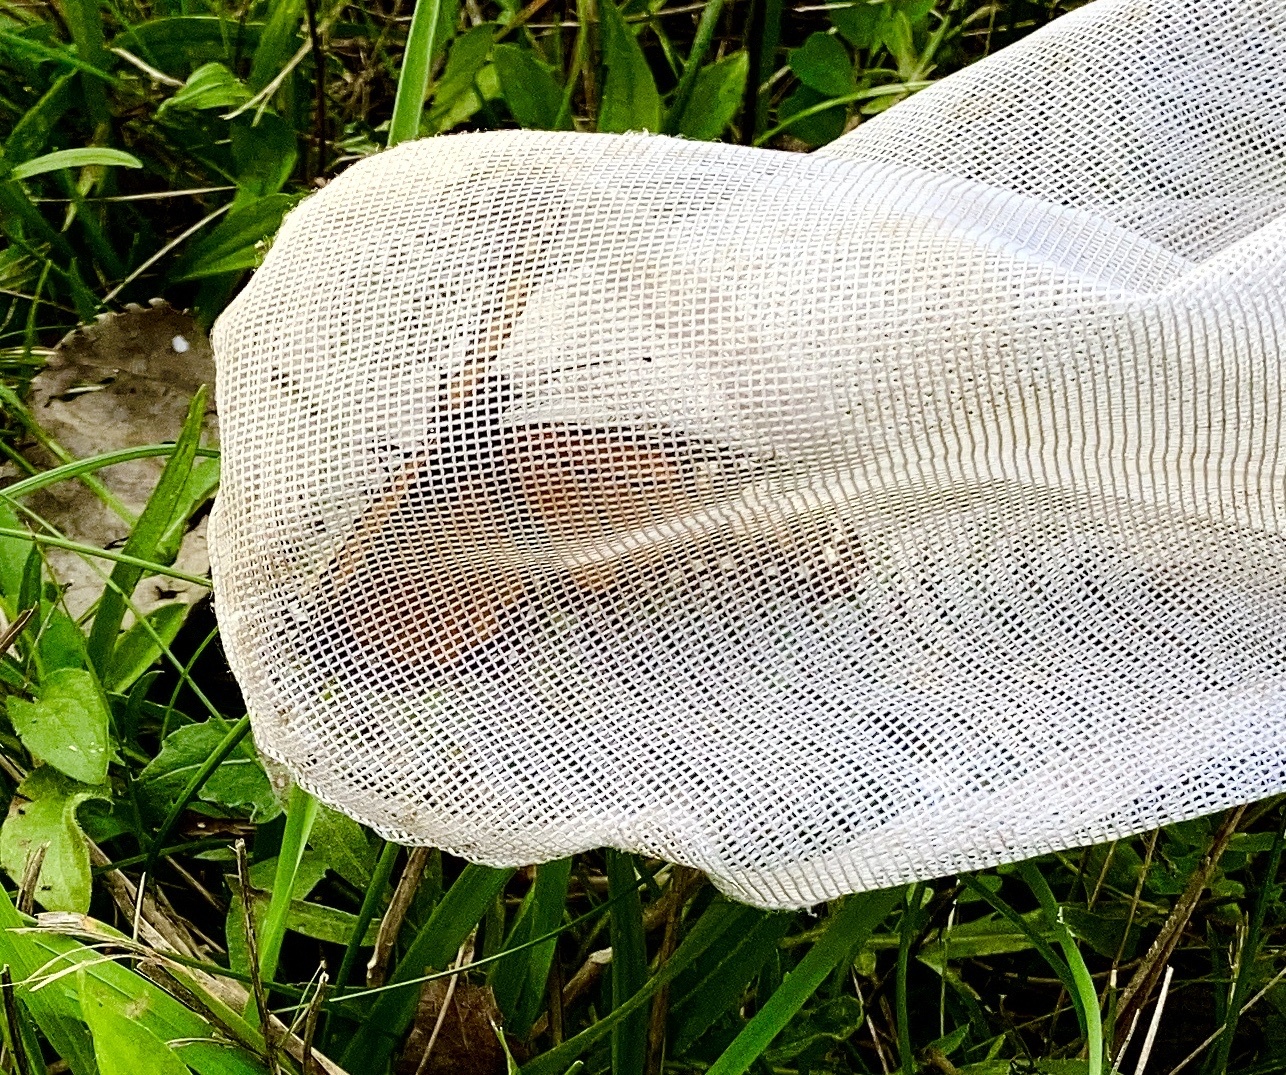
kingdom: Animalia
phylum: Arthropoda
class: Insecta
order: Lepidoptera
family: Nymphalidae
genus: Danaus
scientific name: Danaus plexippus
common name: Monarch
